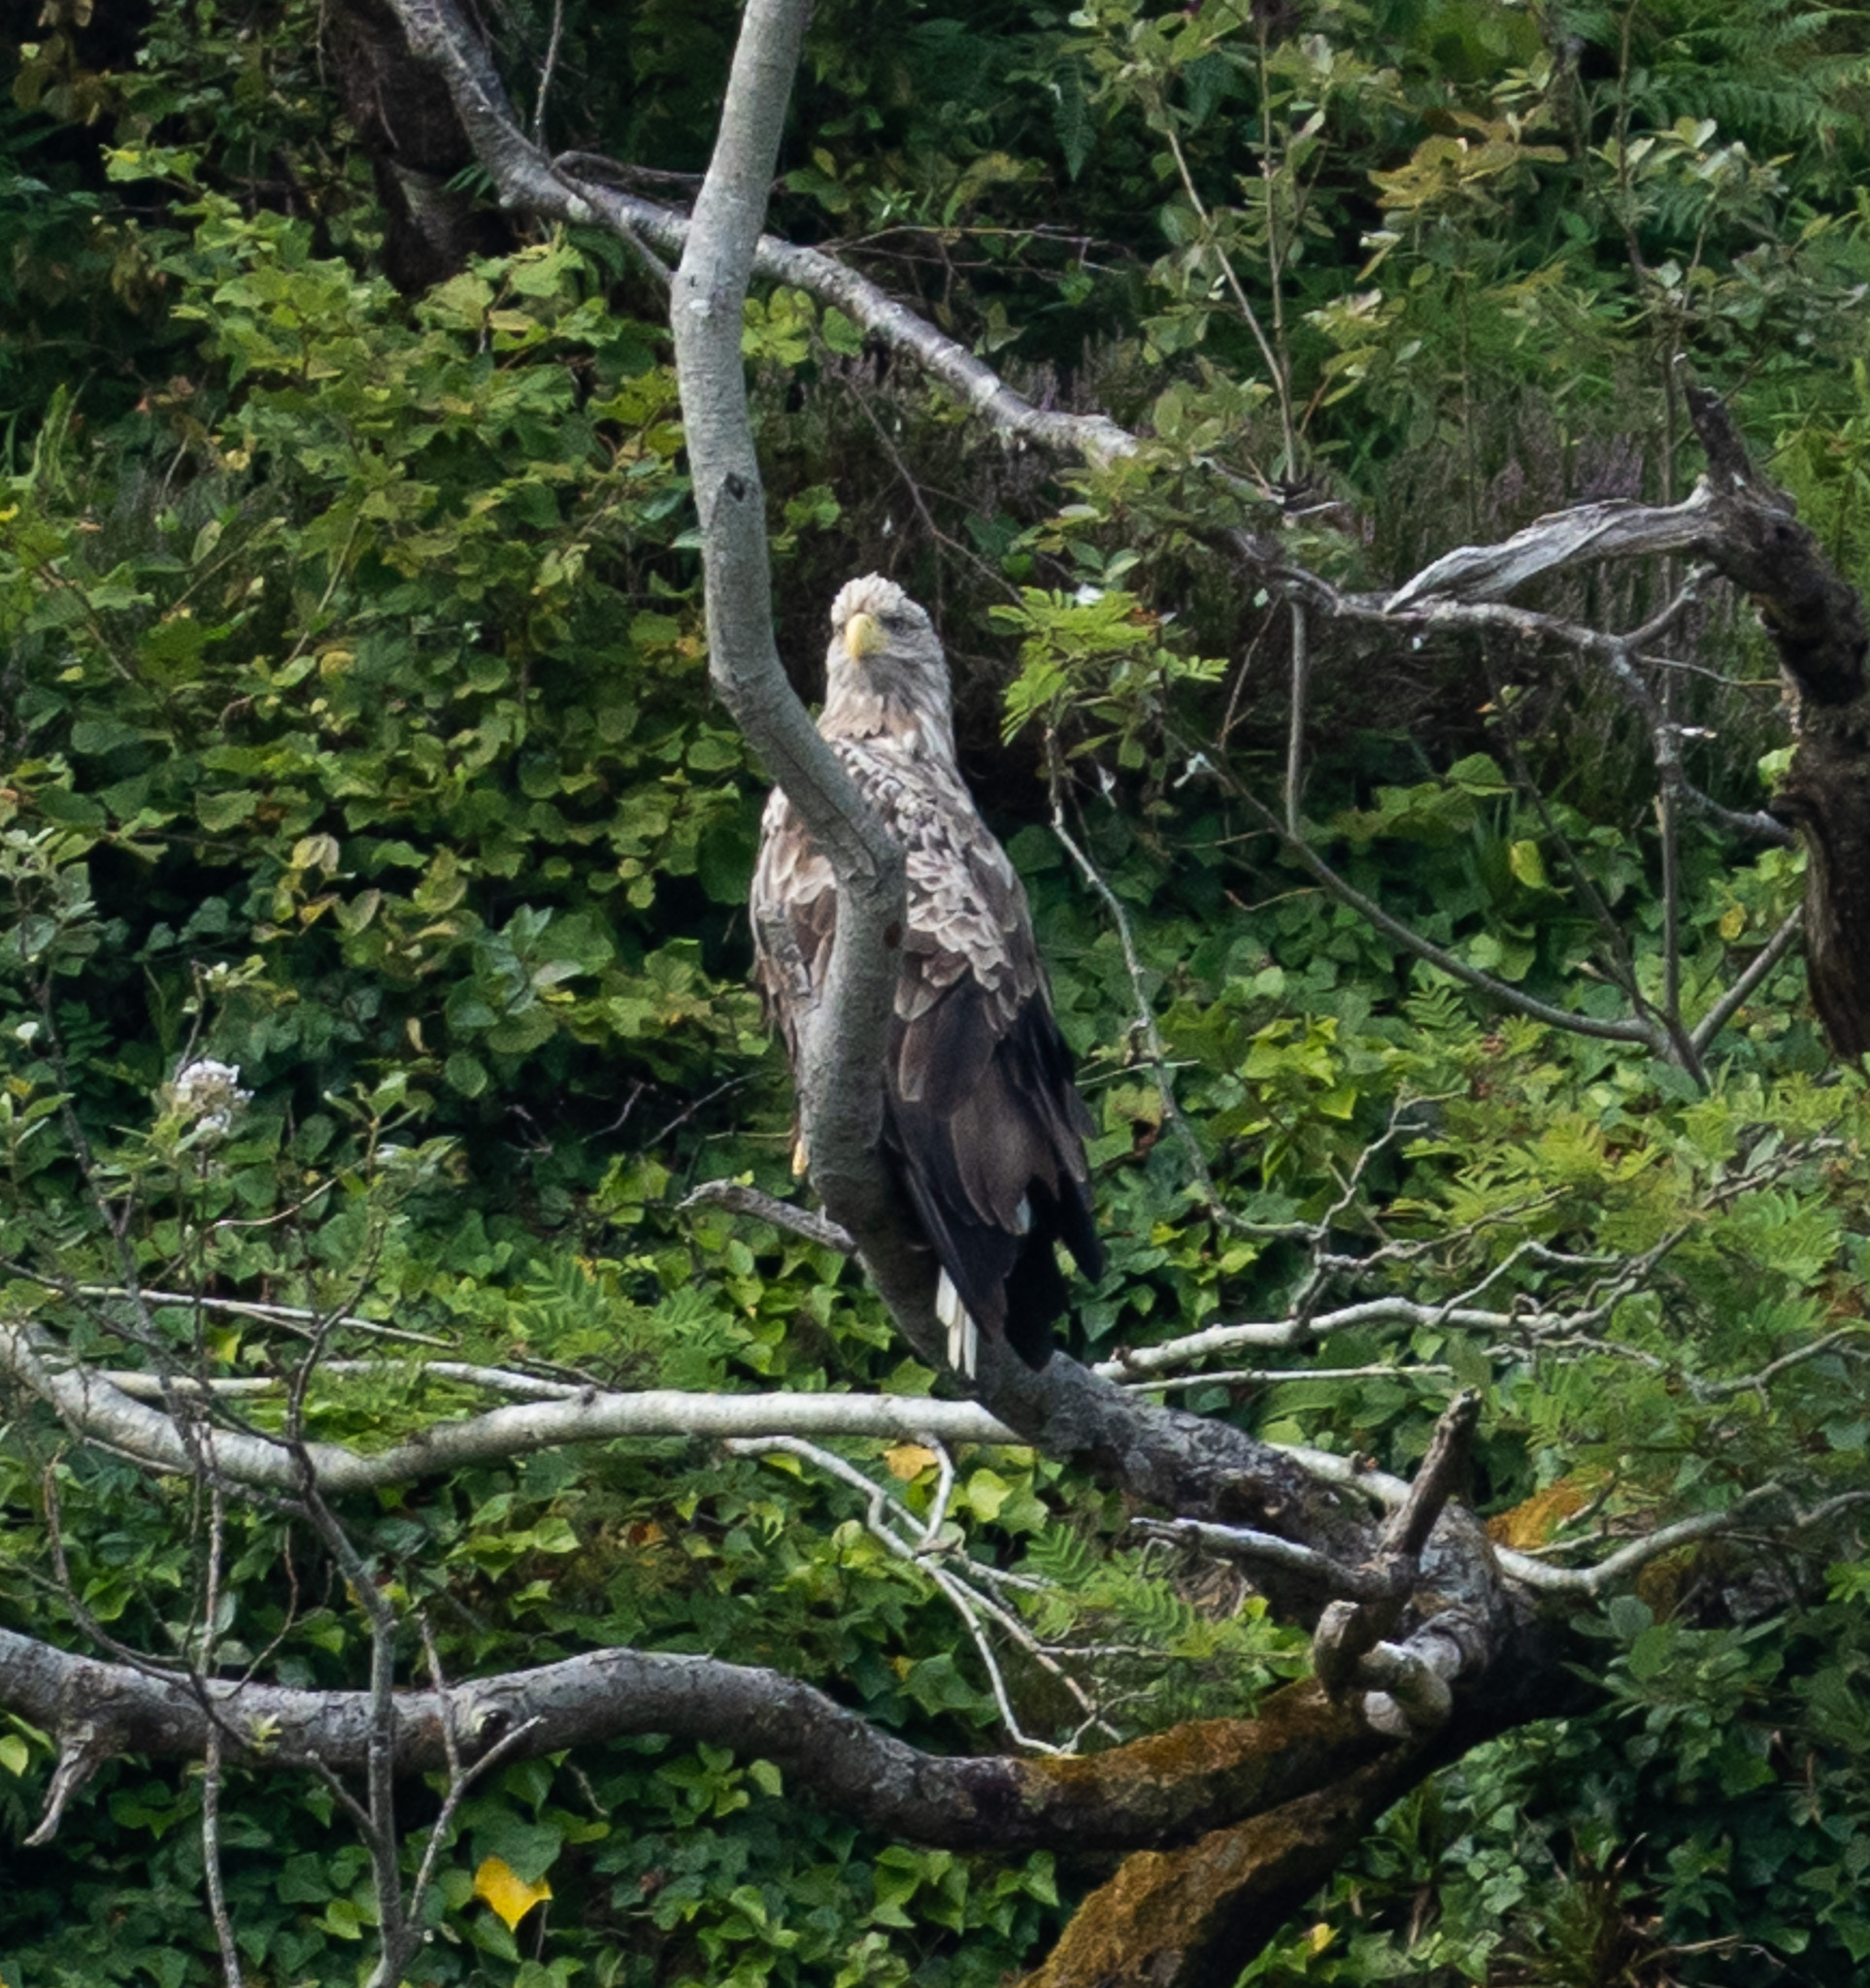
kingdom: Animalia
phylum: Chordata
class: Aves
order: Accipitriformes
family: Accipitridae
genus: Haliaeetus
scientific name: Haliaeetus albicilla
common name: White-tailed eagle
